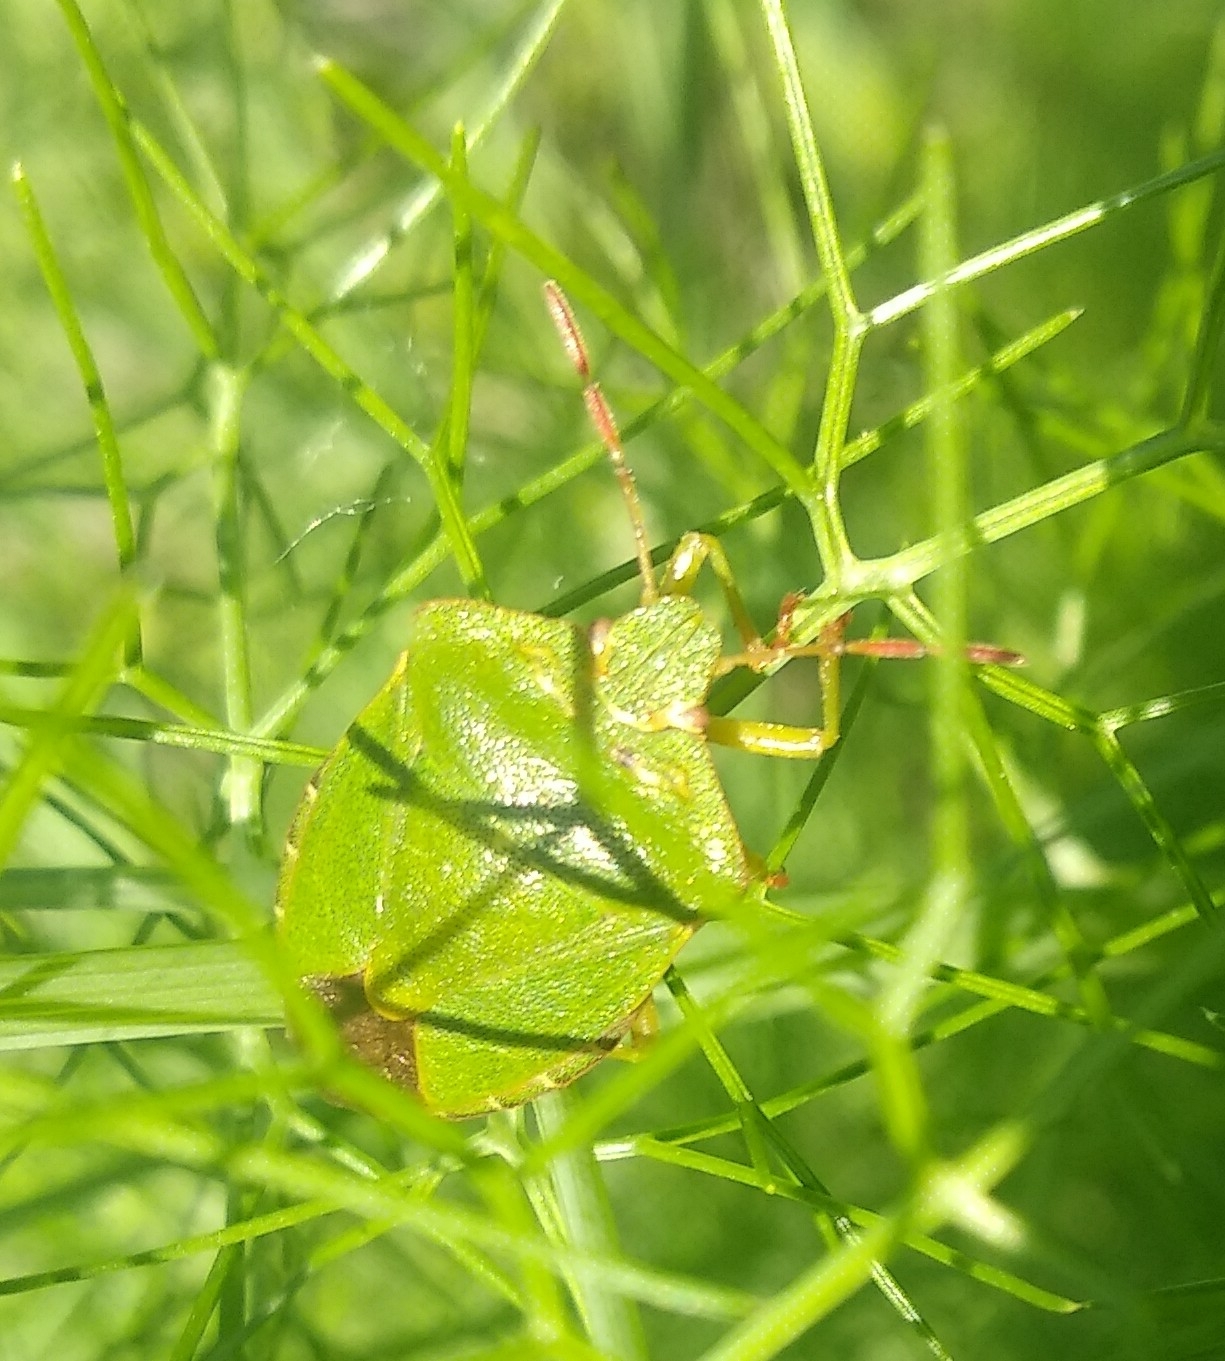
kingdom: Animalia
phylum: Arthropoda
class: Insecta
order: Hemiptera
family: Pentatomidae
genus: Palomena
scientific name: Palomena prasina
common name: Green shieldbug
